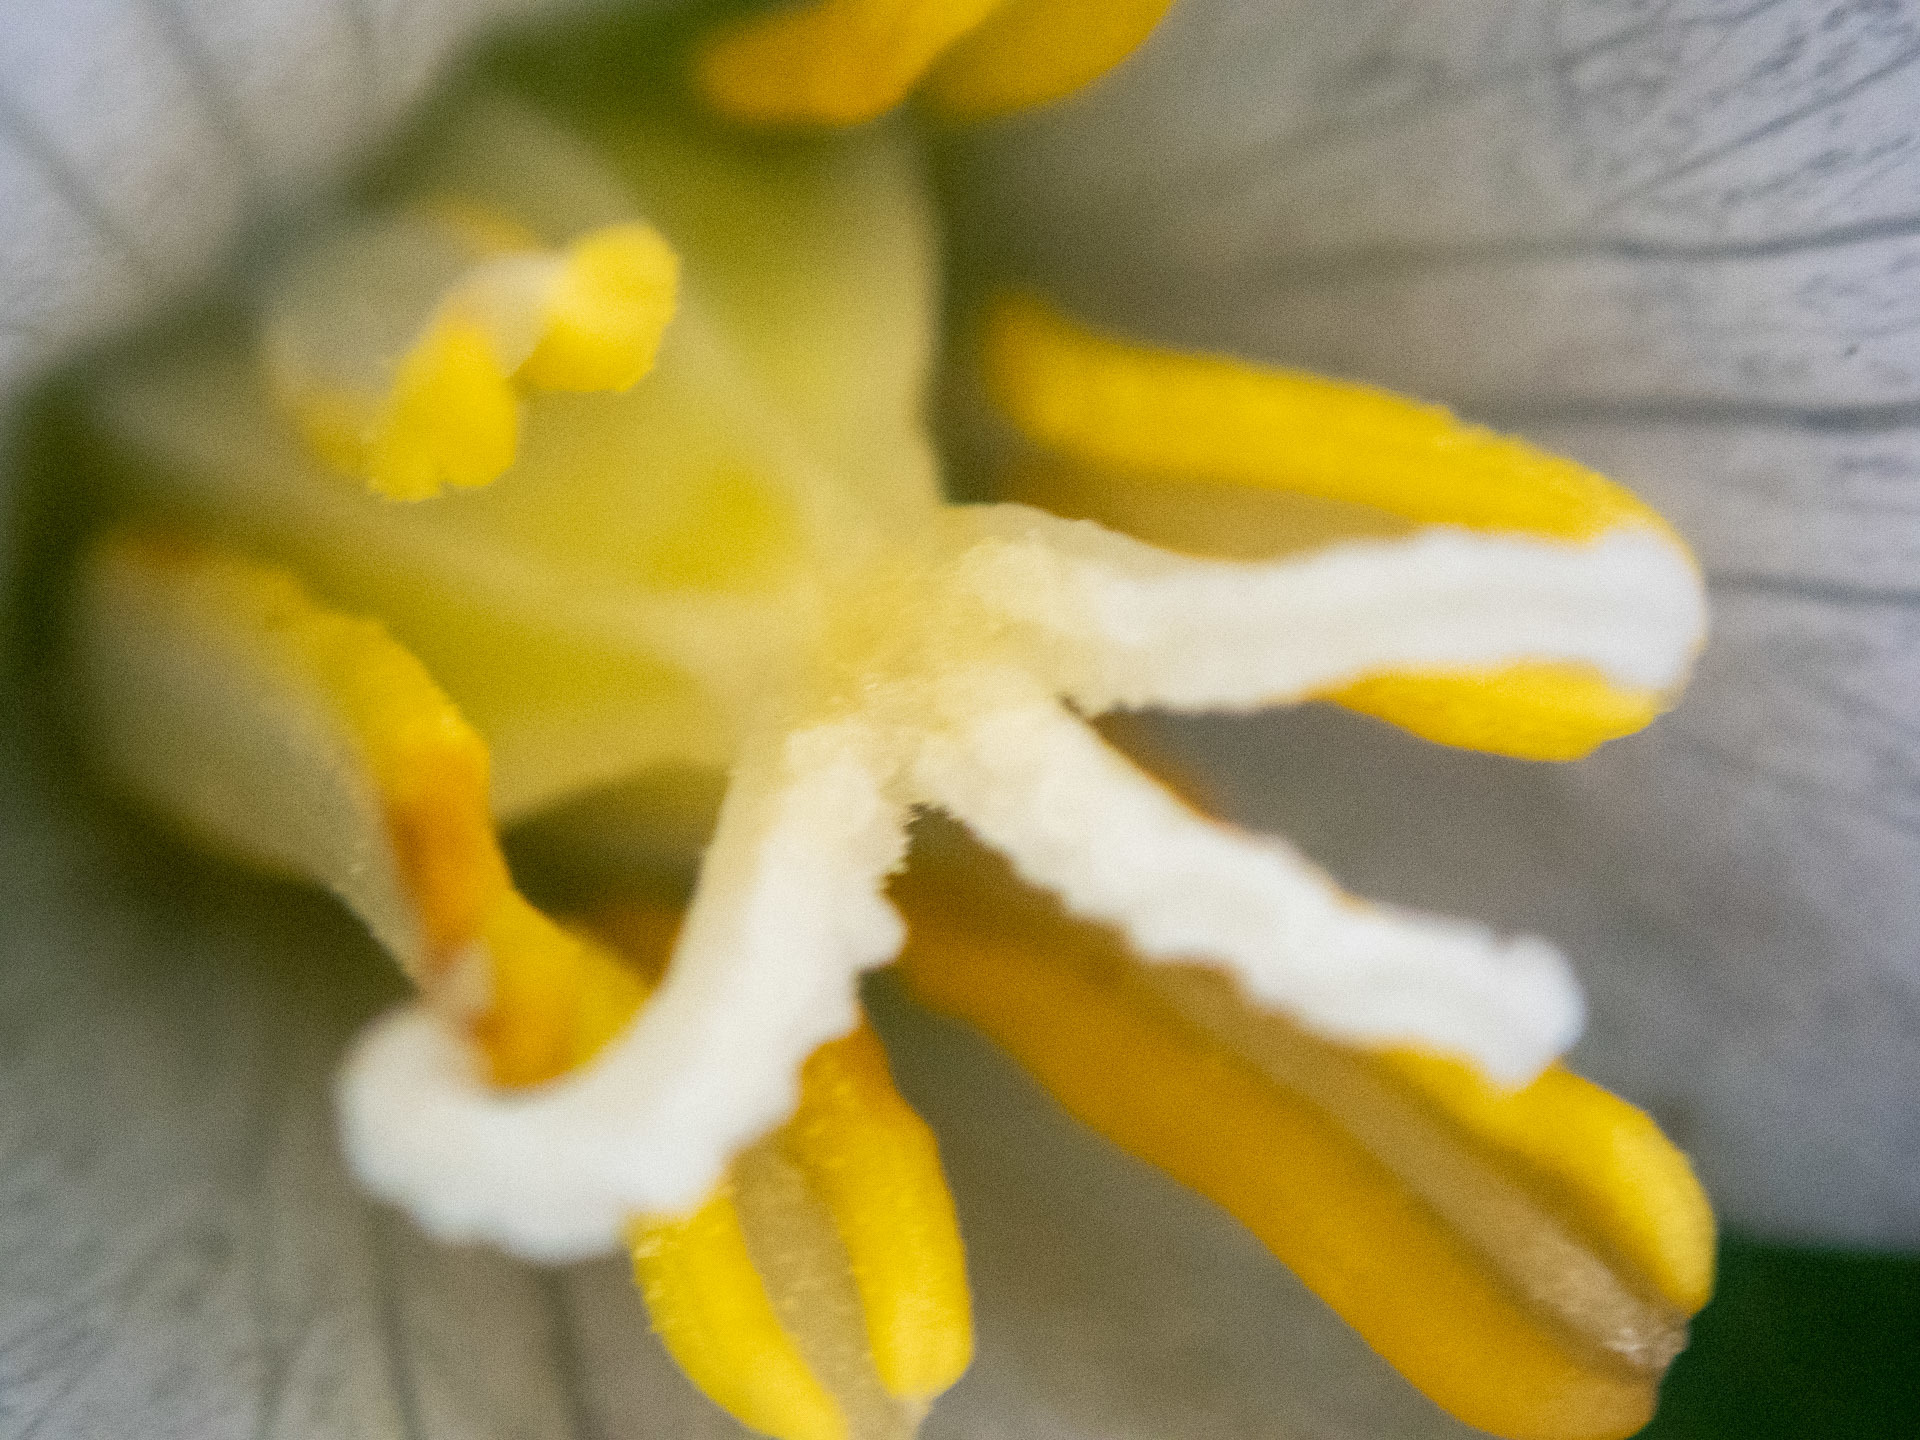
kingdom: Plantae
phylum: Tracheophyta
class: Liliopsida
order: Liliales
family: Melanthiaceae
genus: Trillium
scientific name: Trillium ovatum
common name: Pacific trillium
